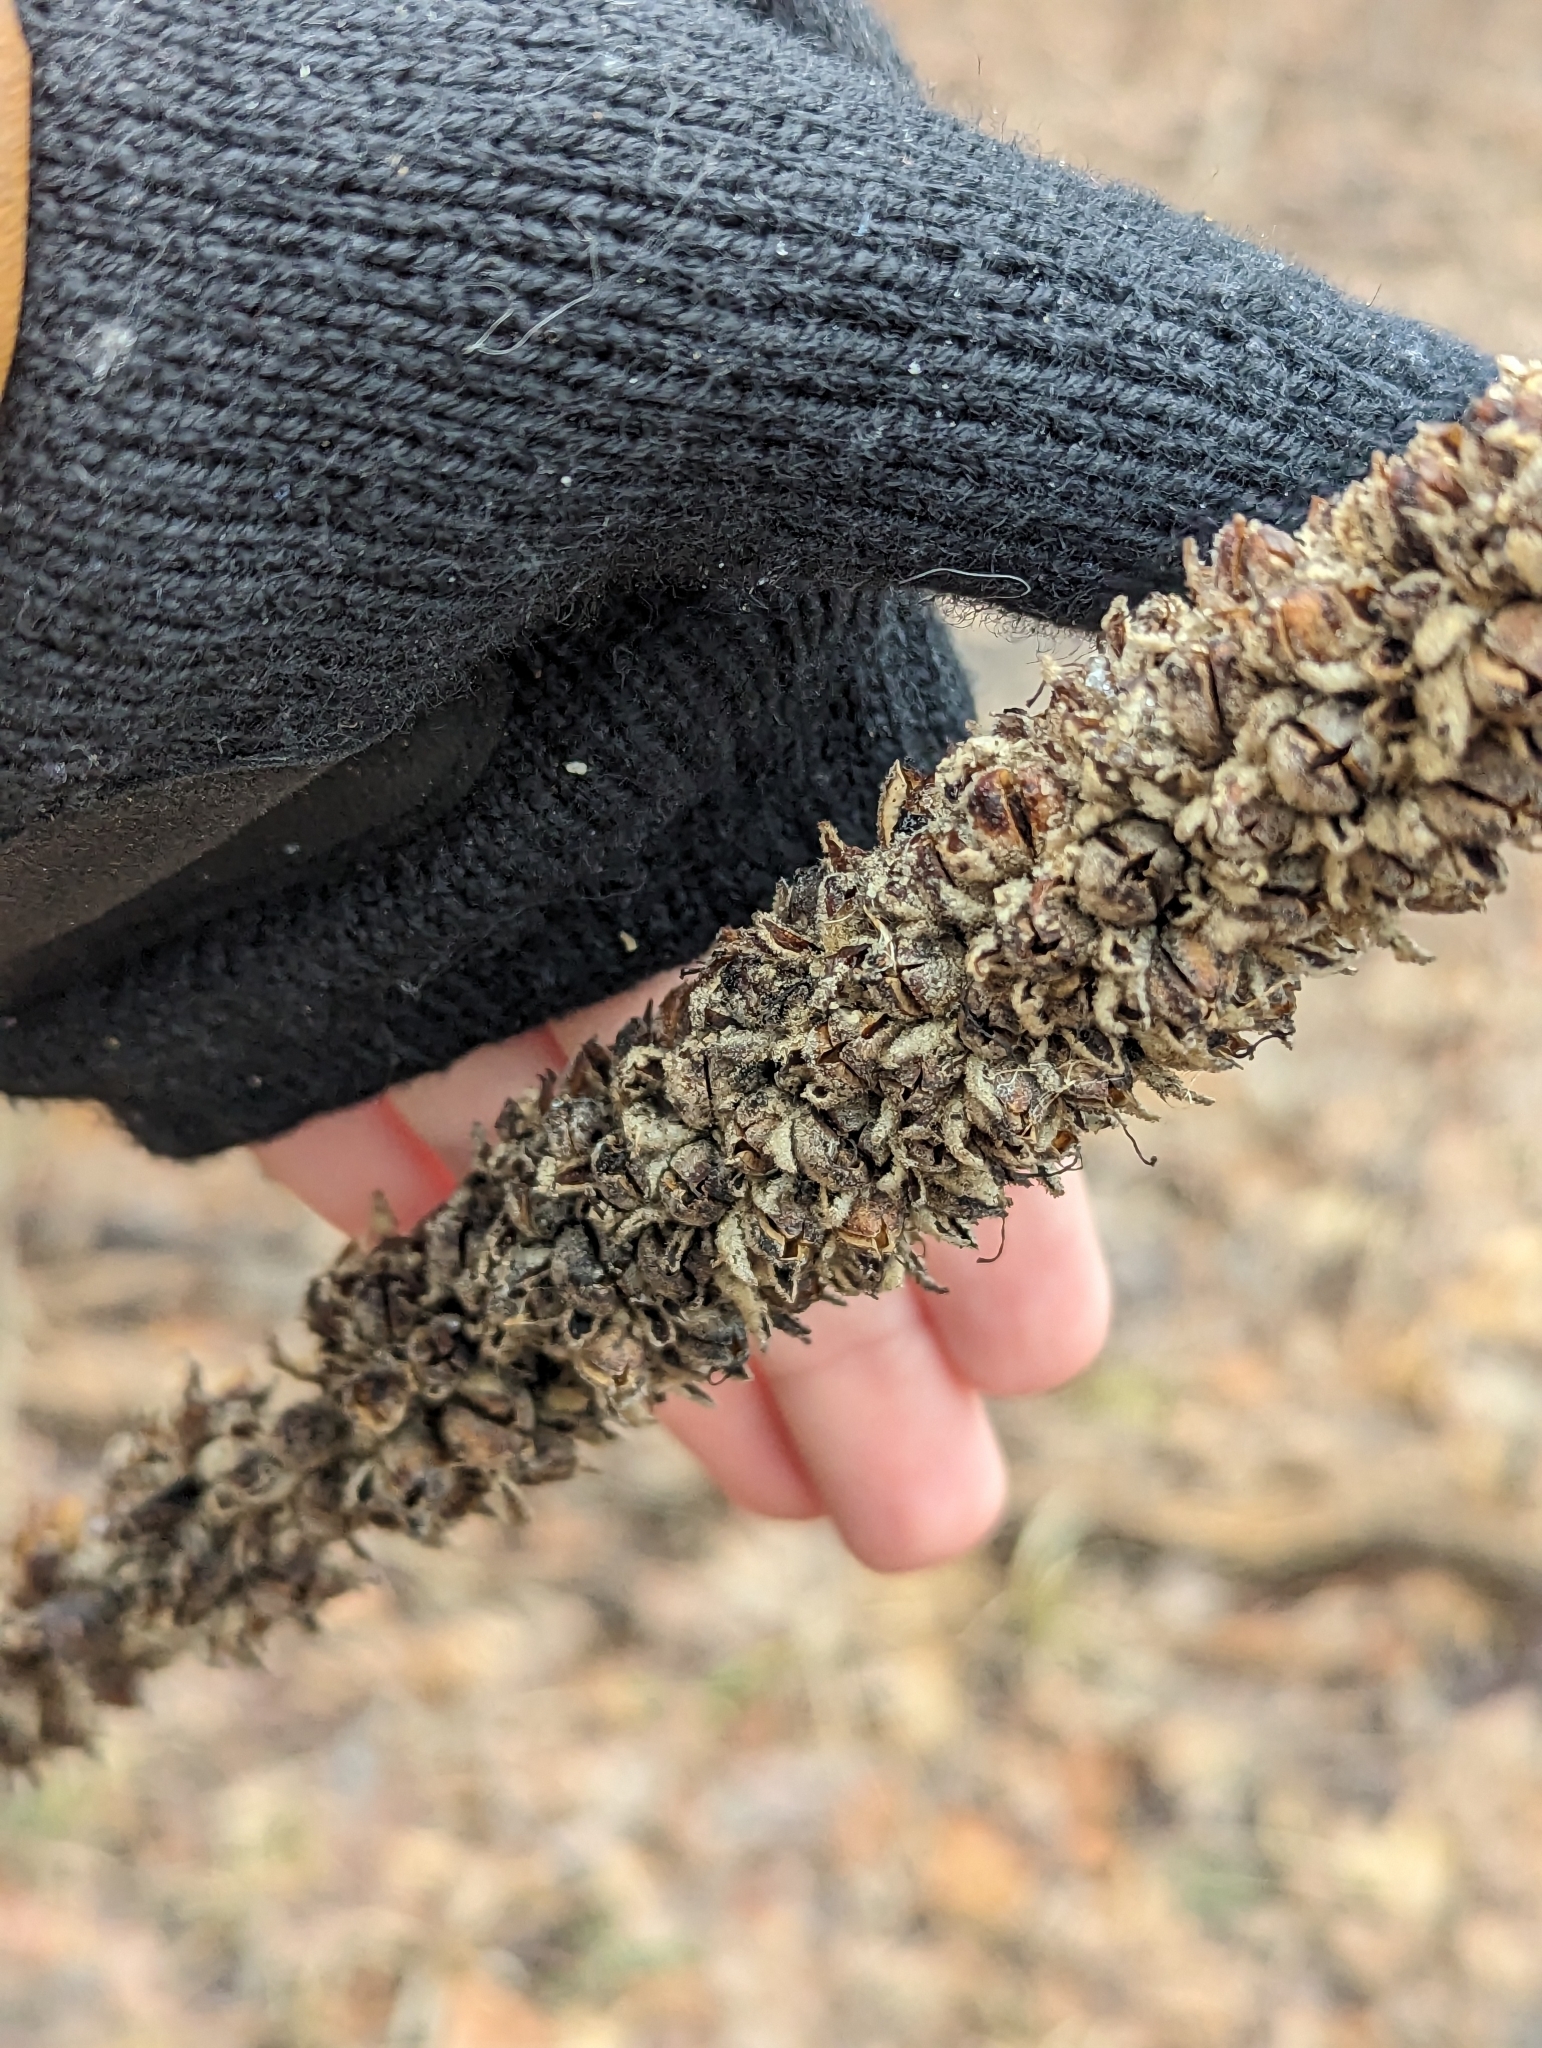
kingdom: Plantae
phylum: Tracheophyta
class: Magnoliopsida
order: Lamiales
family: Scrophulariaceae
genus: Verbascum
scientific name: Verbascum thapsus
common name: Common mullein
